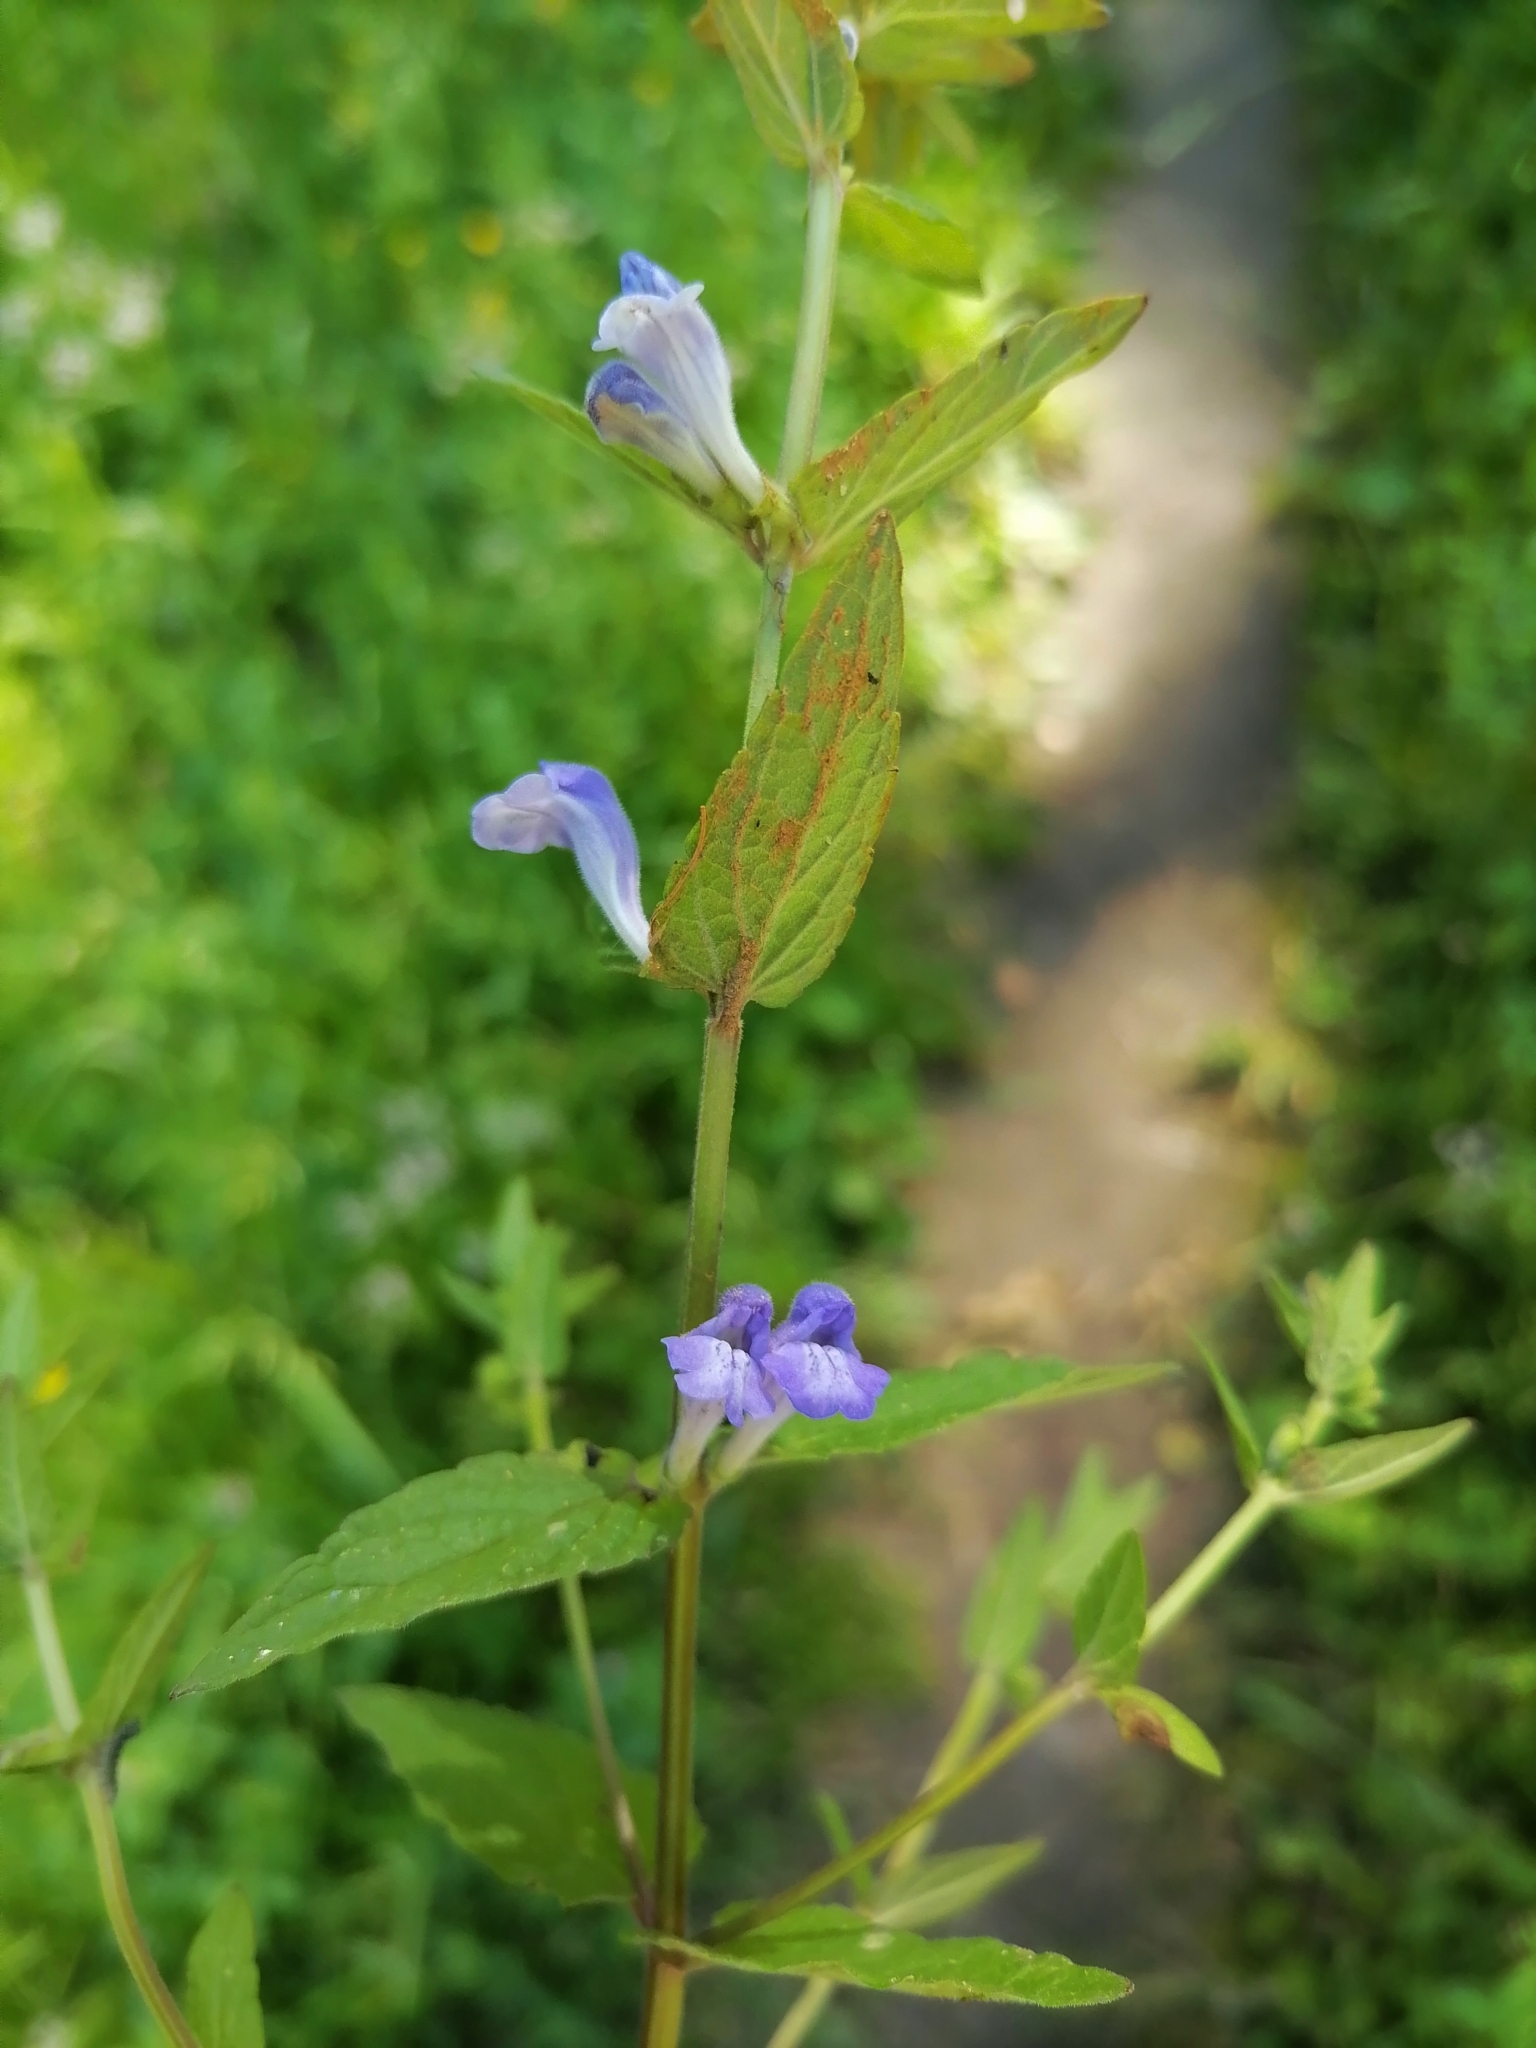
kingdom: Plantae
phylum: Tracheophyta
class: Magnoliopsida
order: Lamiales
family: Lamiaceae
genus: Scutellaria
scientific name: Scutellaria galericulata
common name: Skullcap
